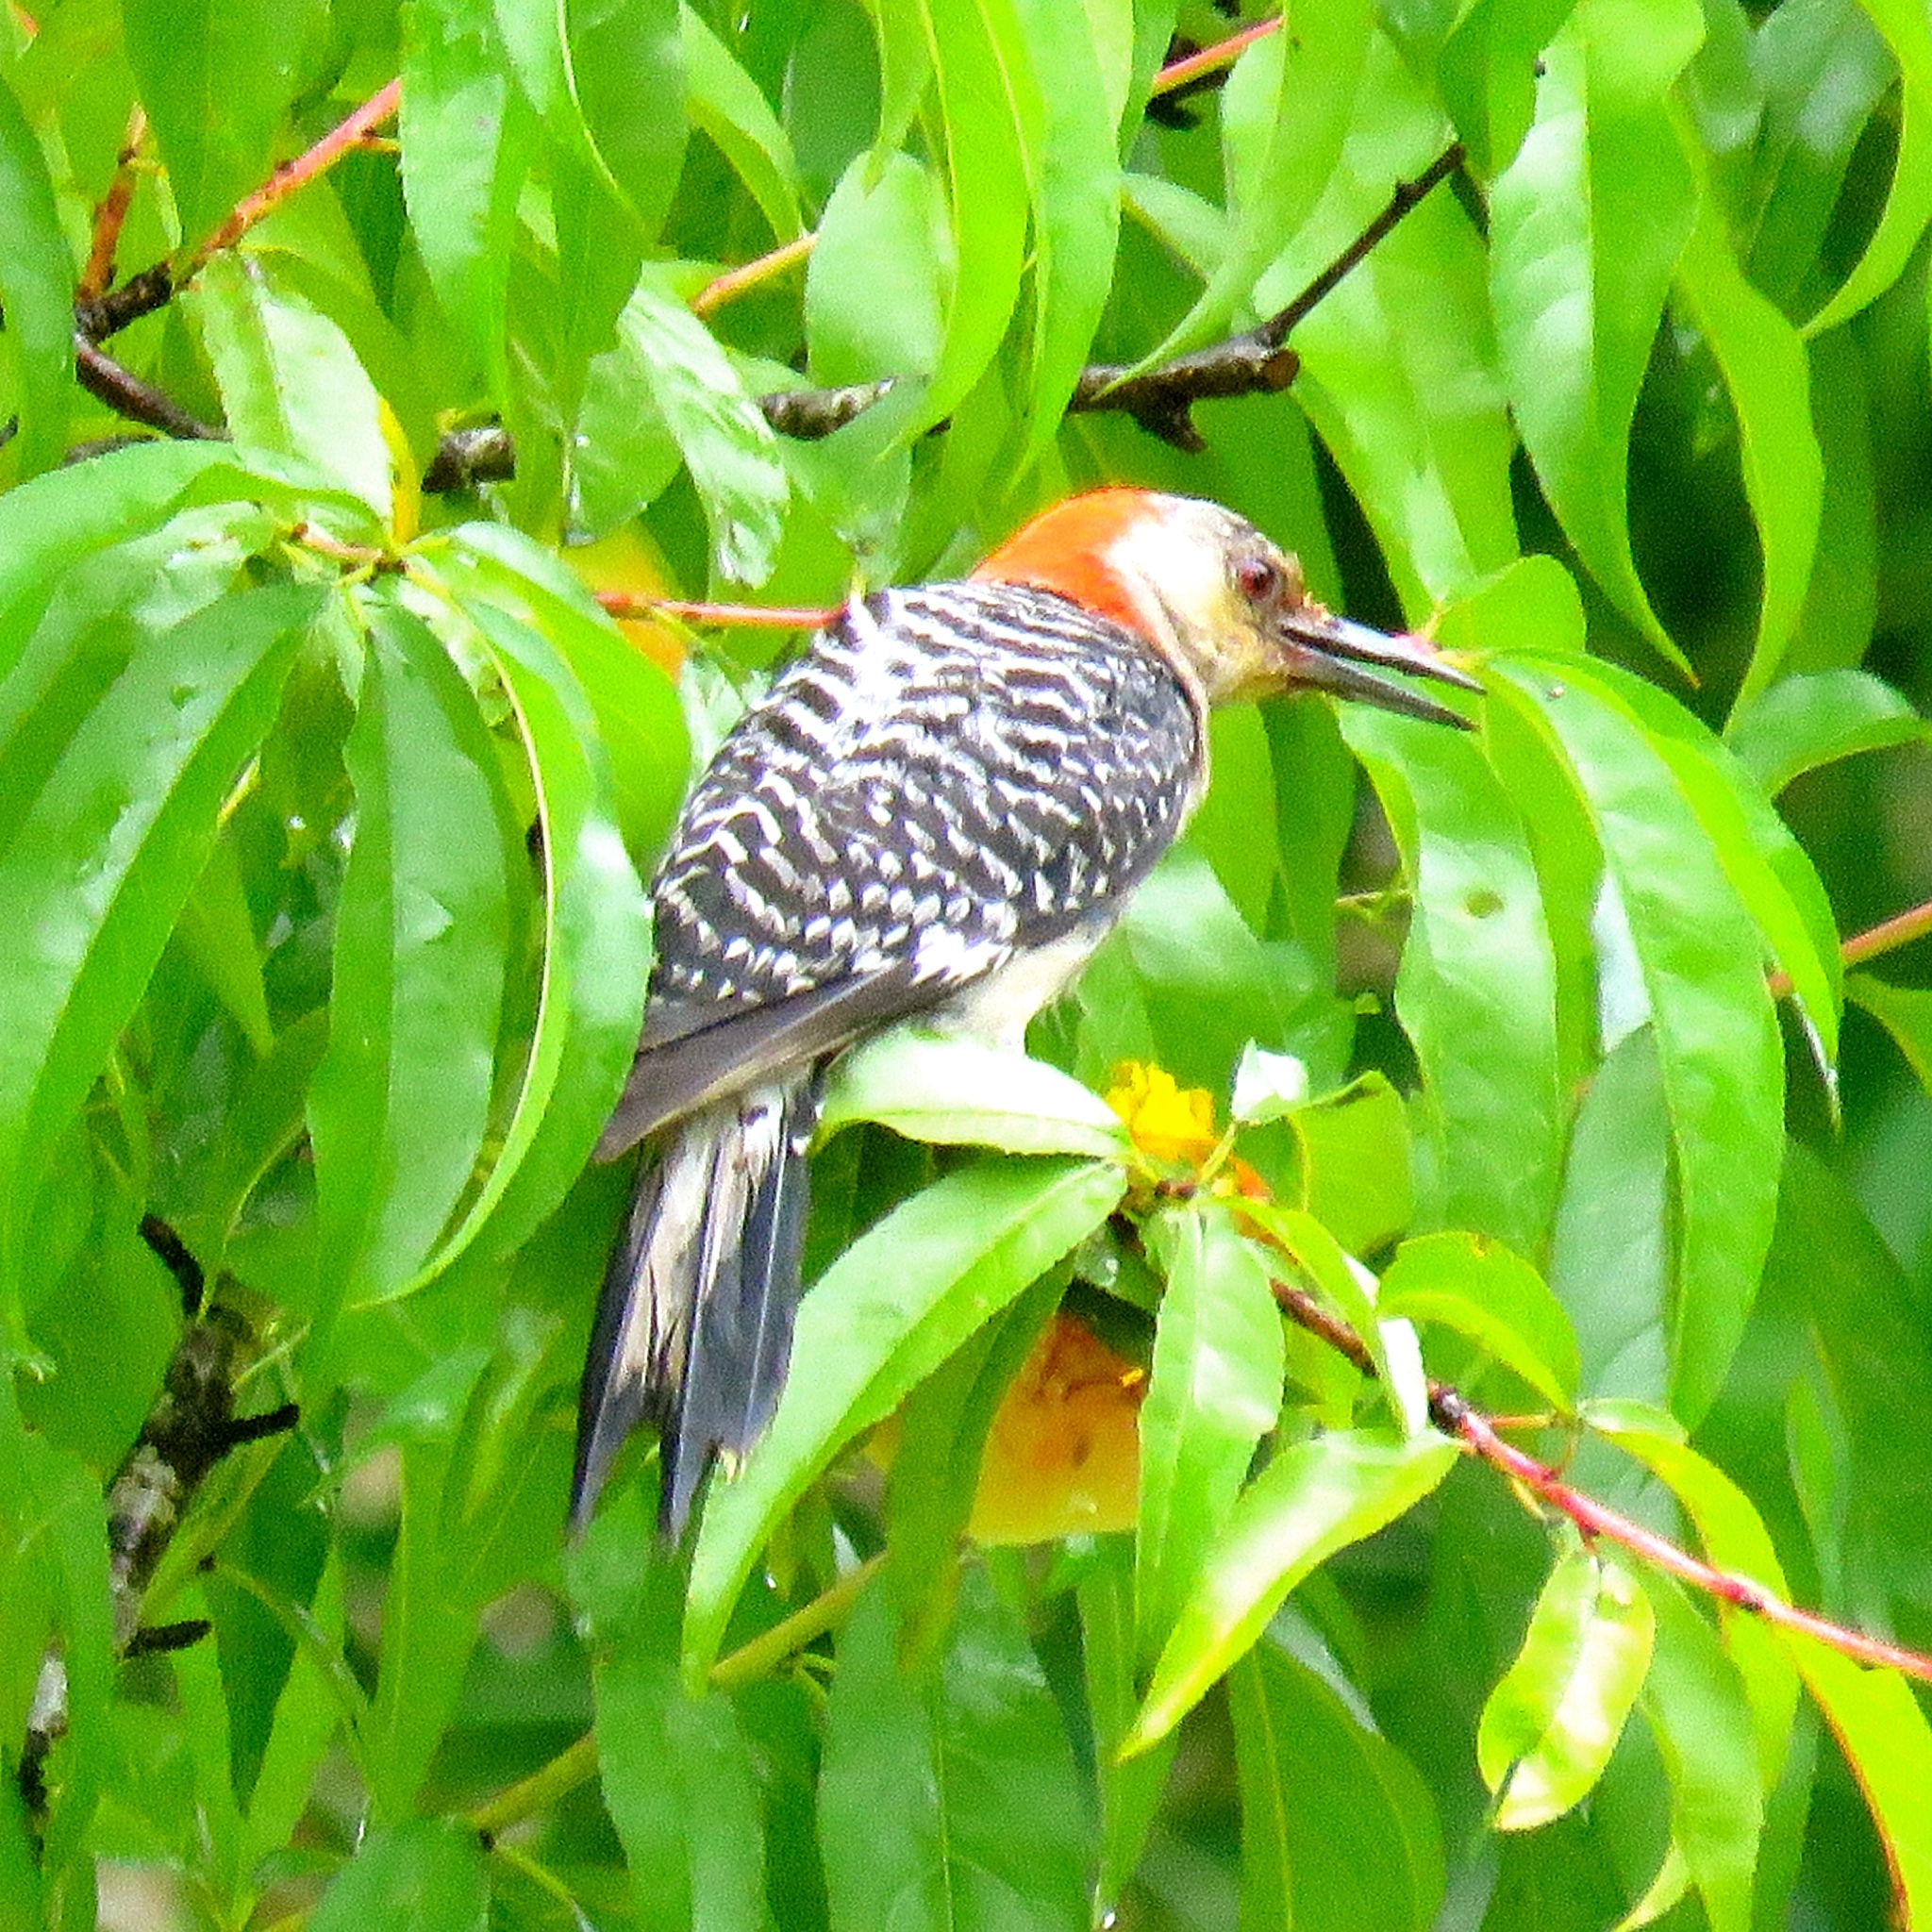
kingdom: Animalia
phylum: Chordata
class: Aves
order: Piciformes
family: Picidae
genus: Melanerpes
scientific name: Melanerpes carolinus
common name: Red-bellied woodpecker
